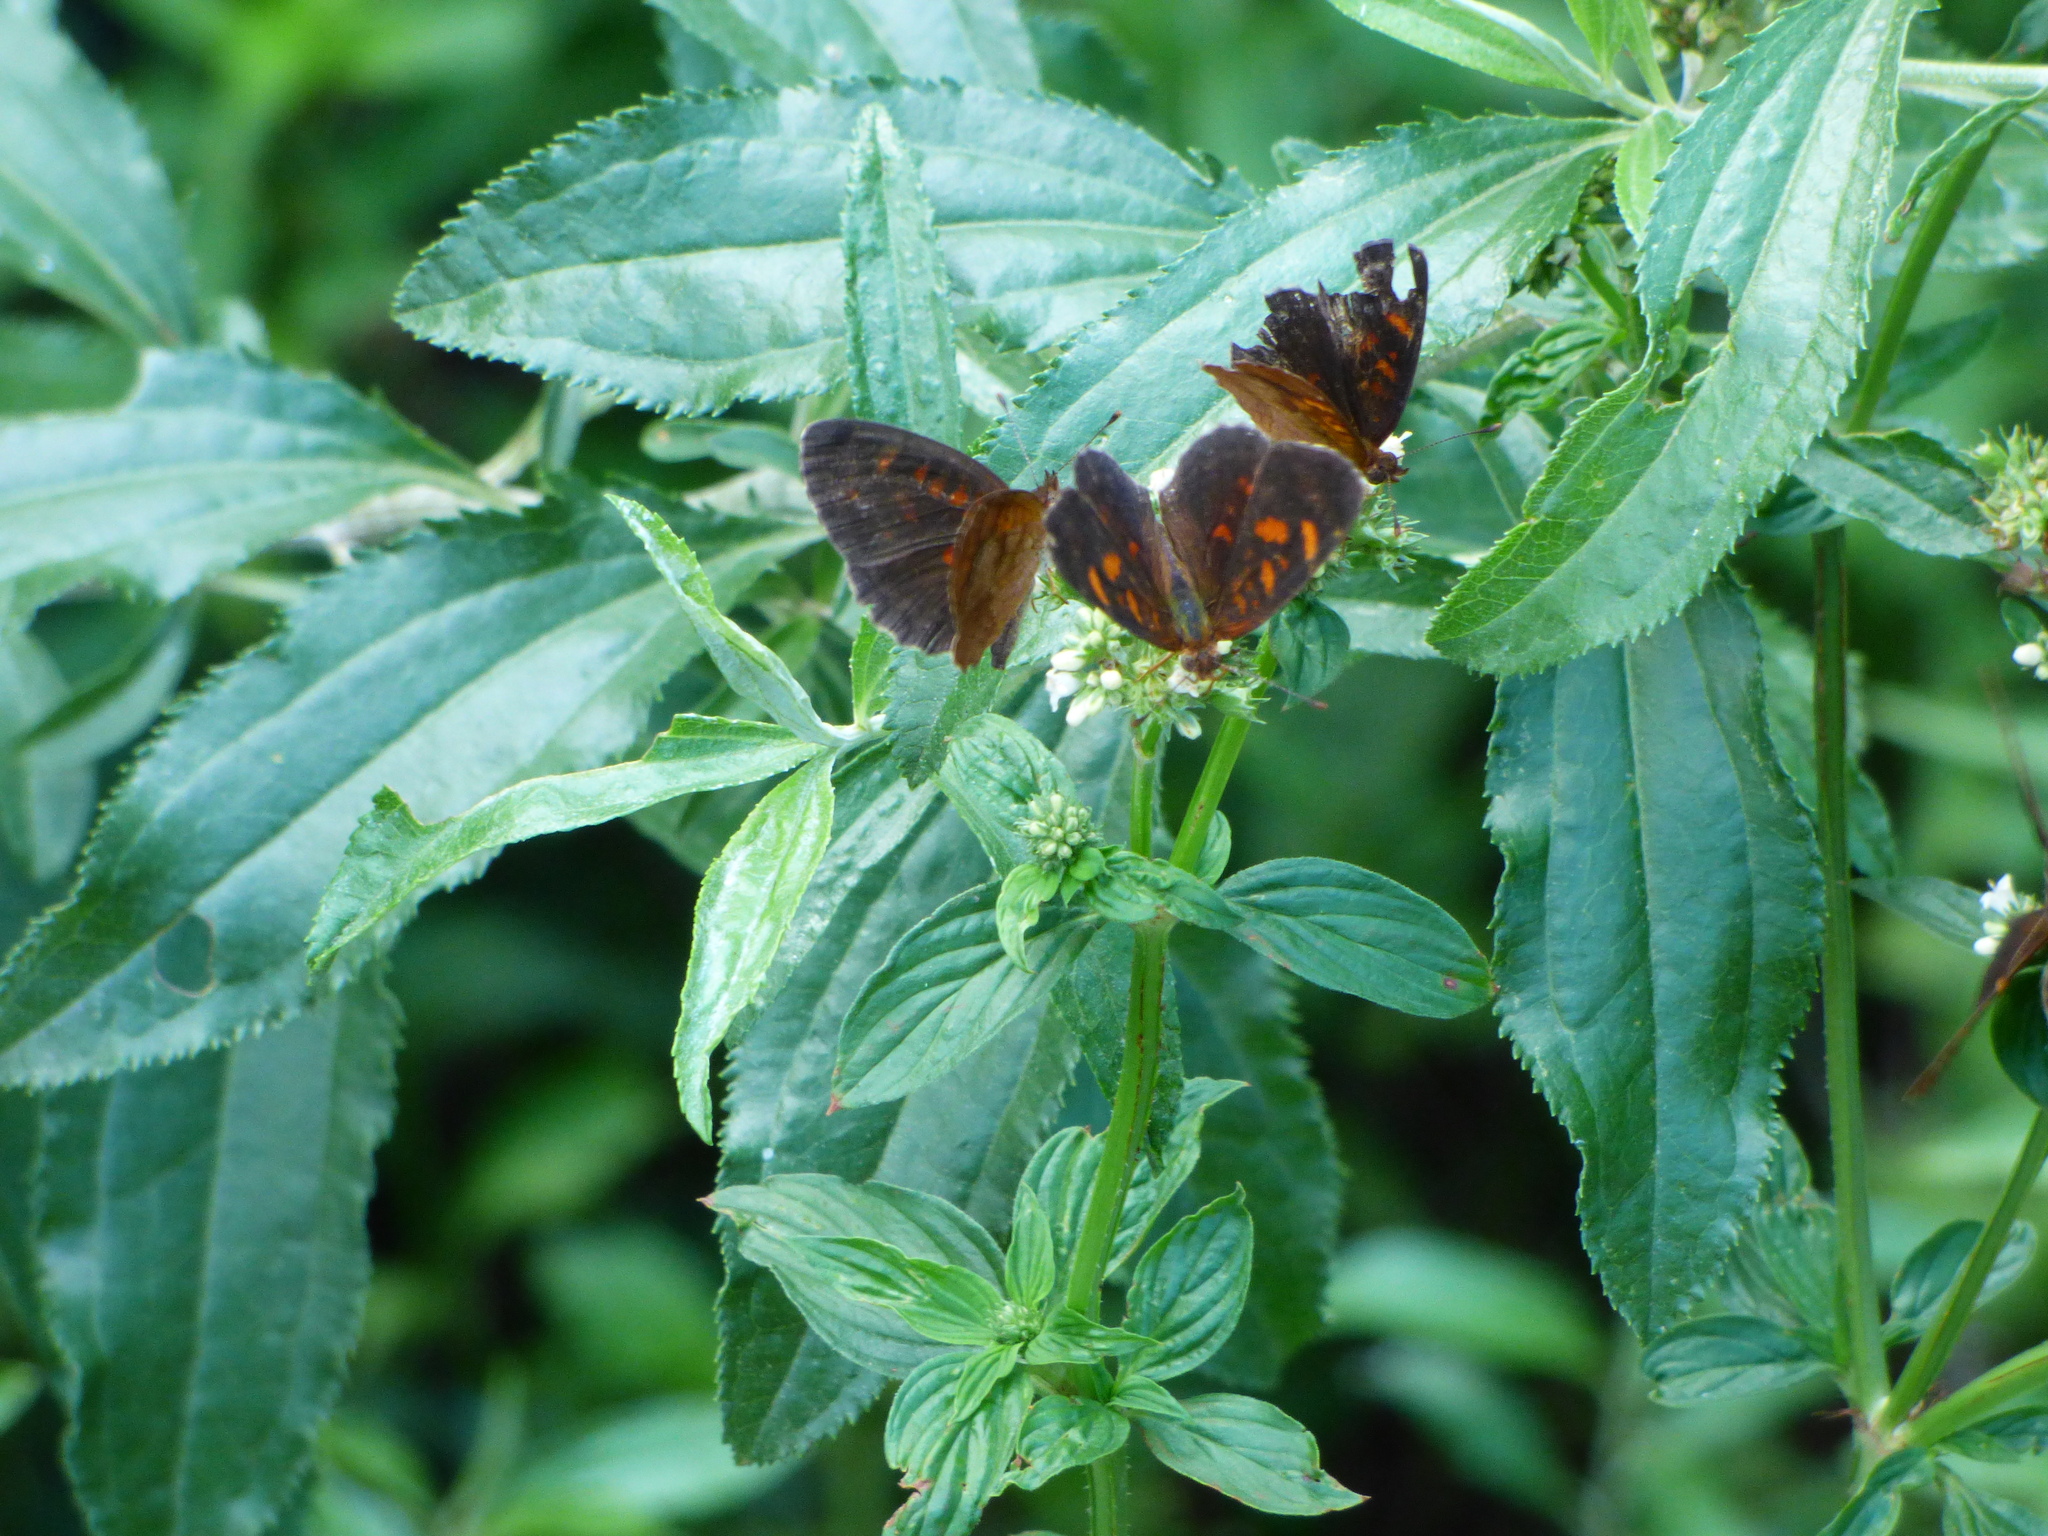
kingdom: Animalia
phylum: Arthropoda
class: Insecta
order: Lepidoptera
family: Nymphalidae
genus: Ortilia
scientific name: Ortilia velica
